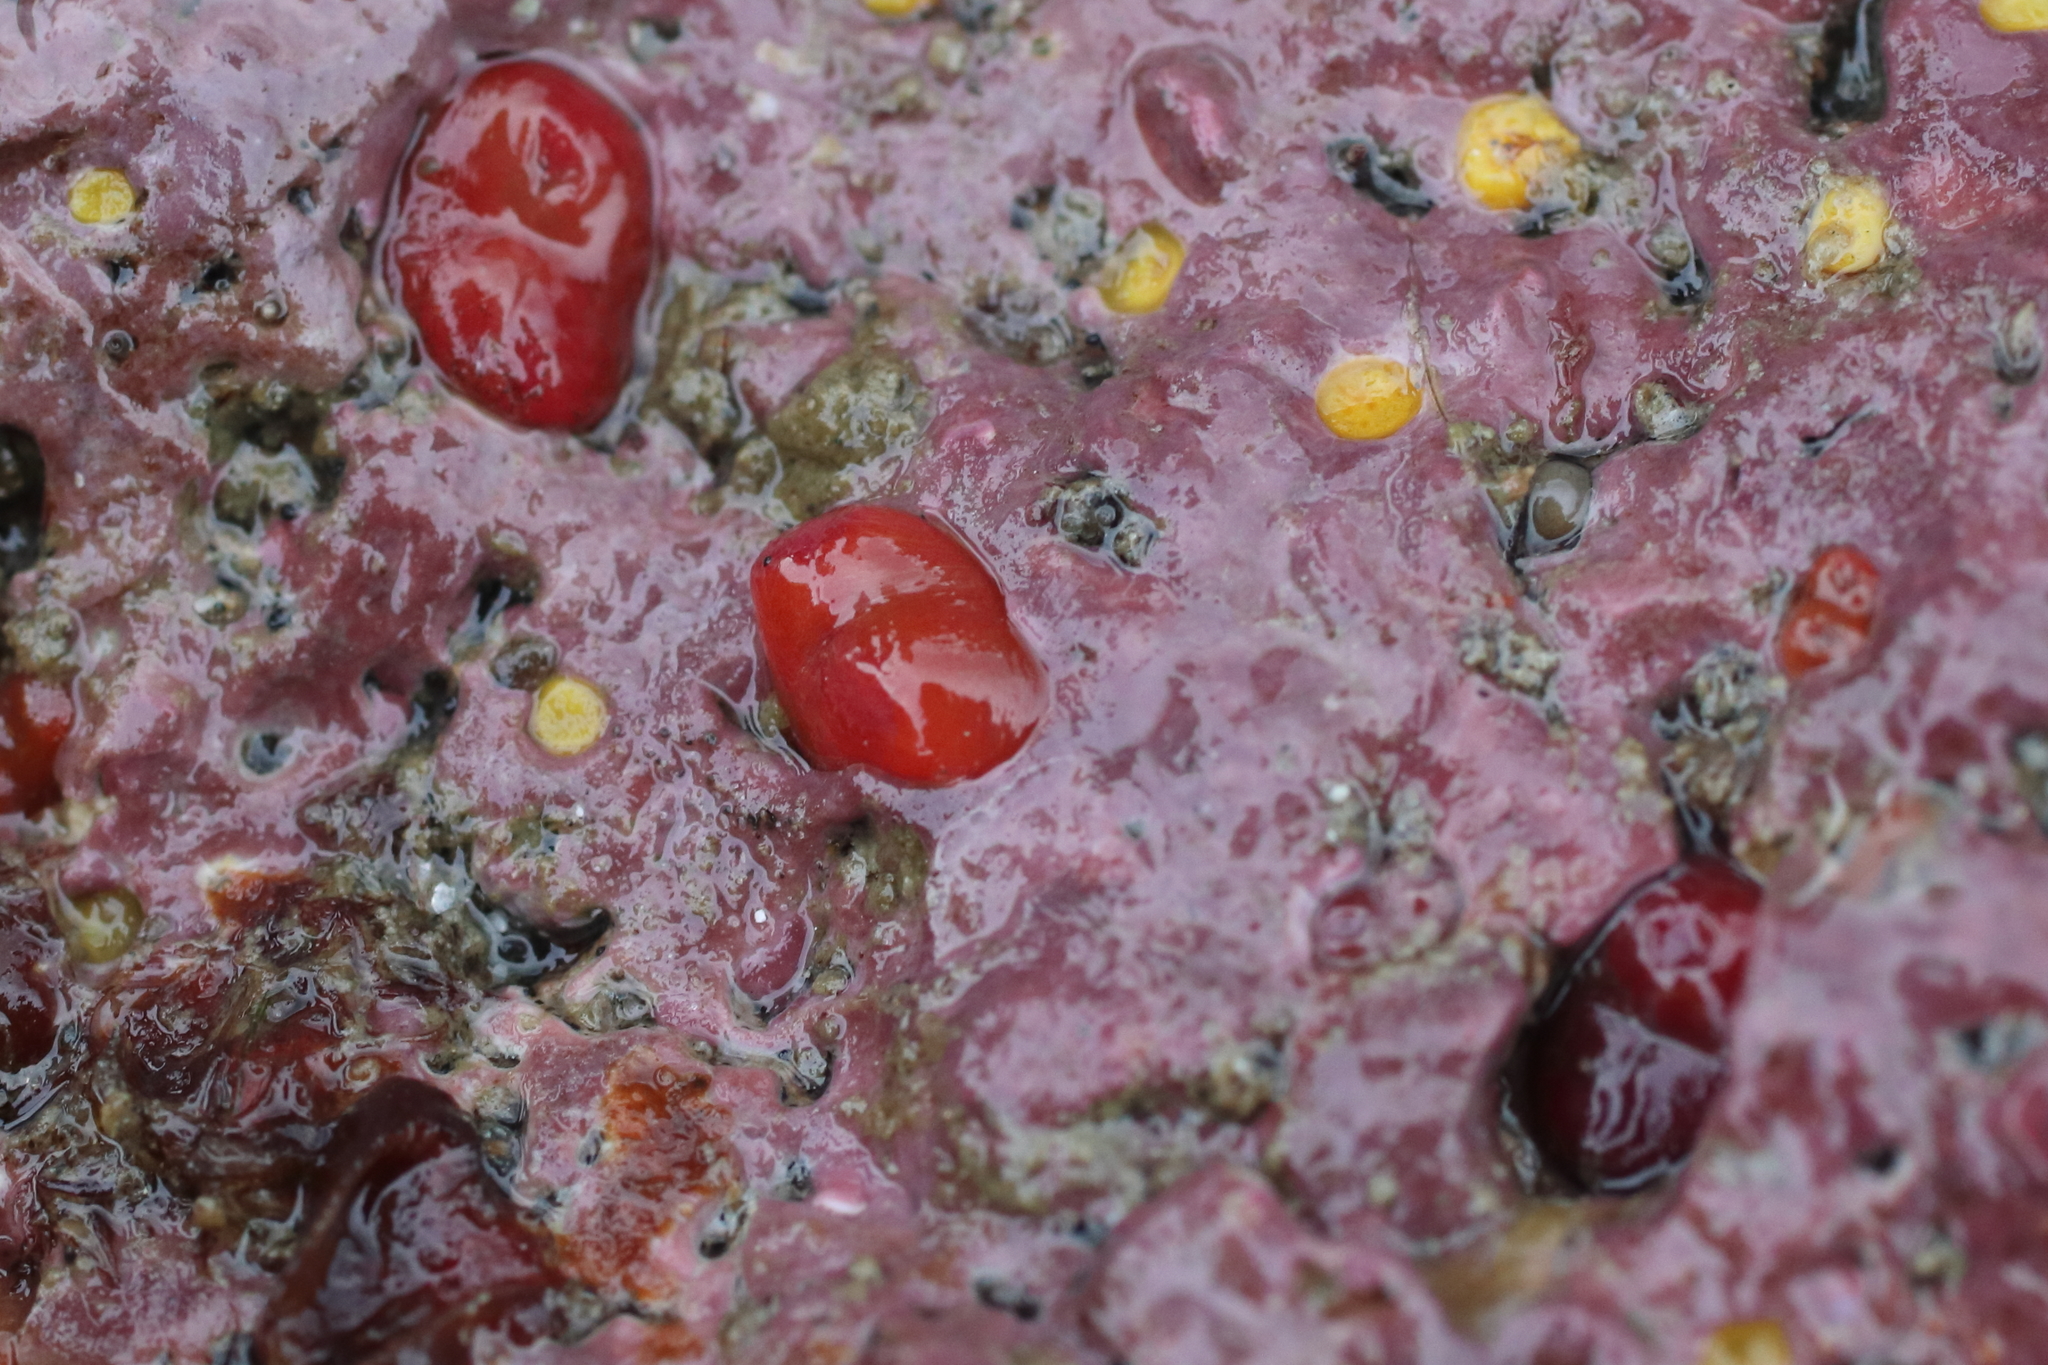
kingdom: Animalia
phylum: Mollusca
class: Bivalvia
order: Adapedonta
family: Hiatellidae
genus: Hiatella
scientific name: Hiatella arctica
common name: Arctic hiatella
